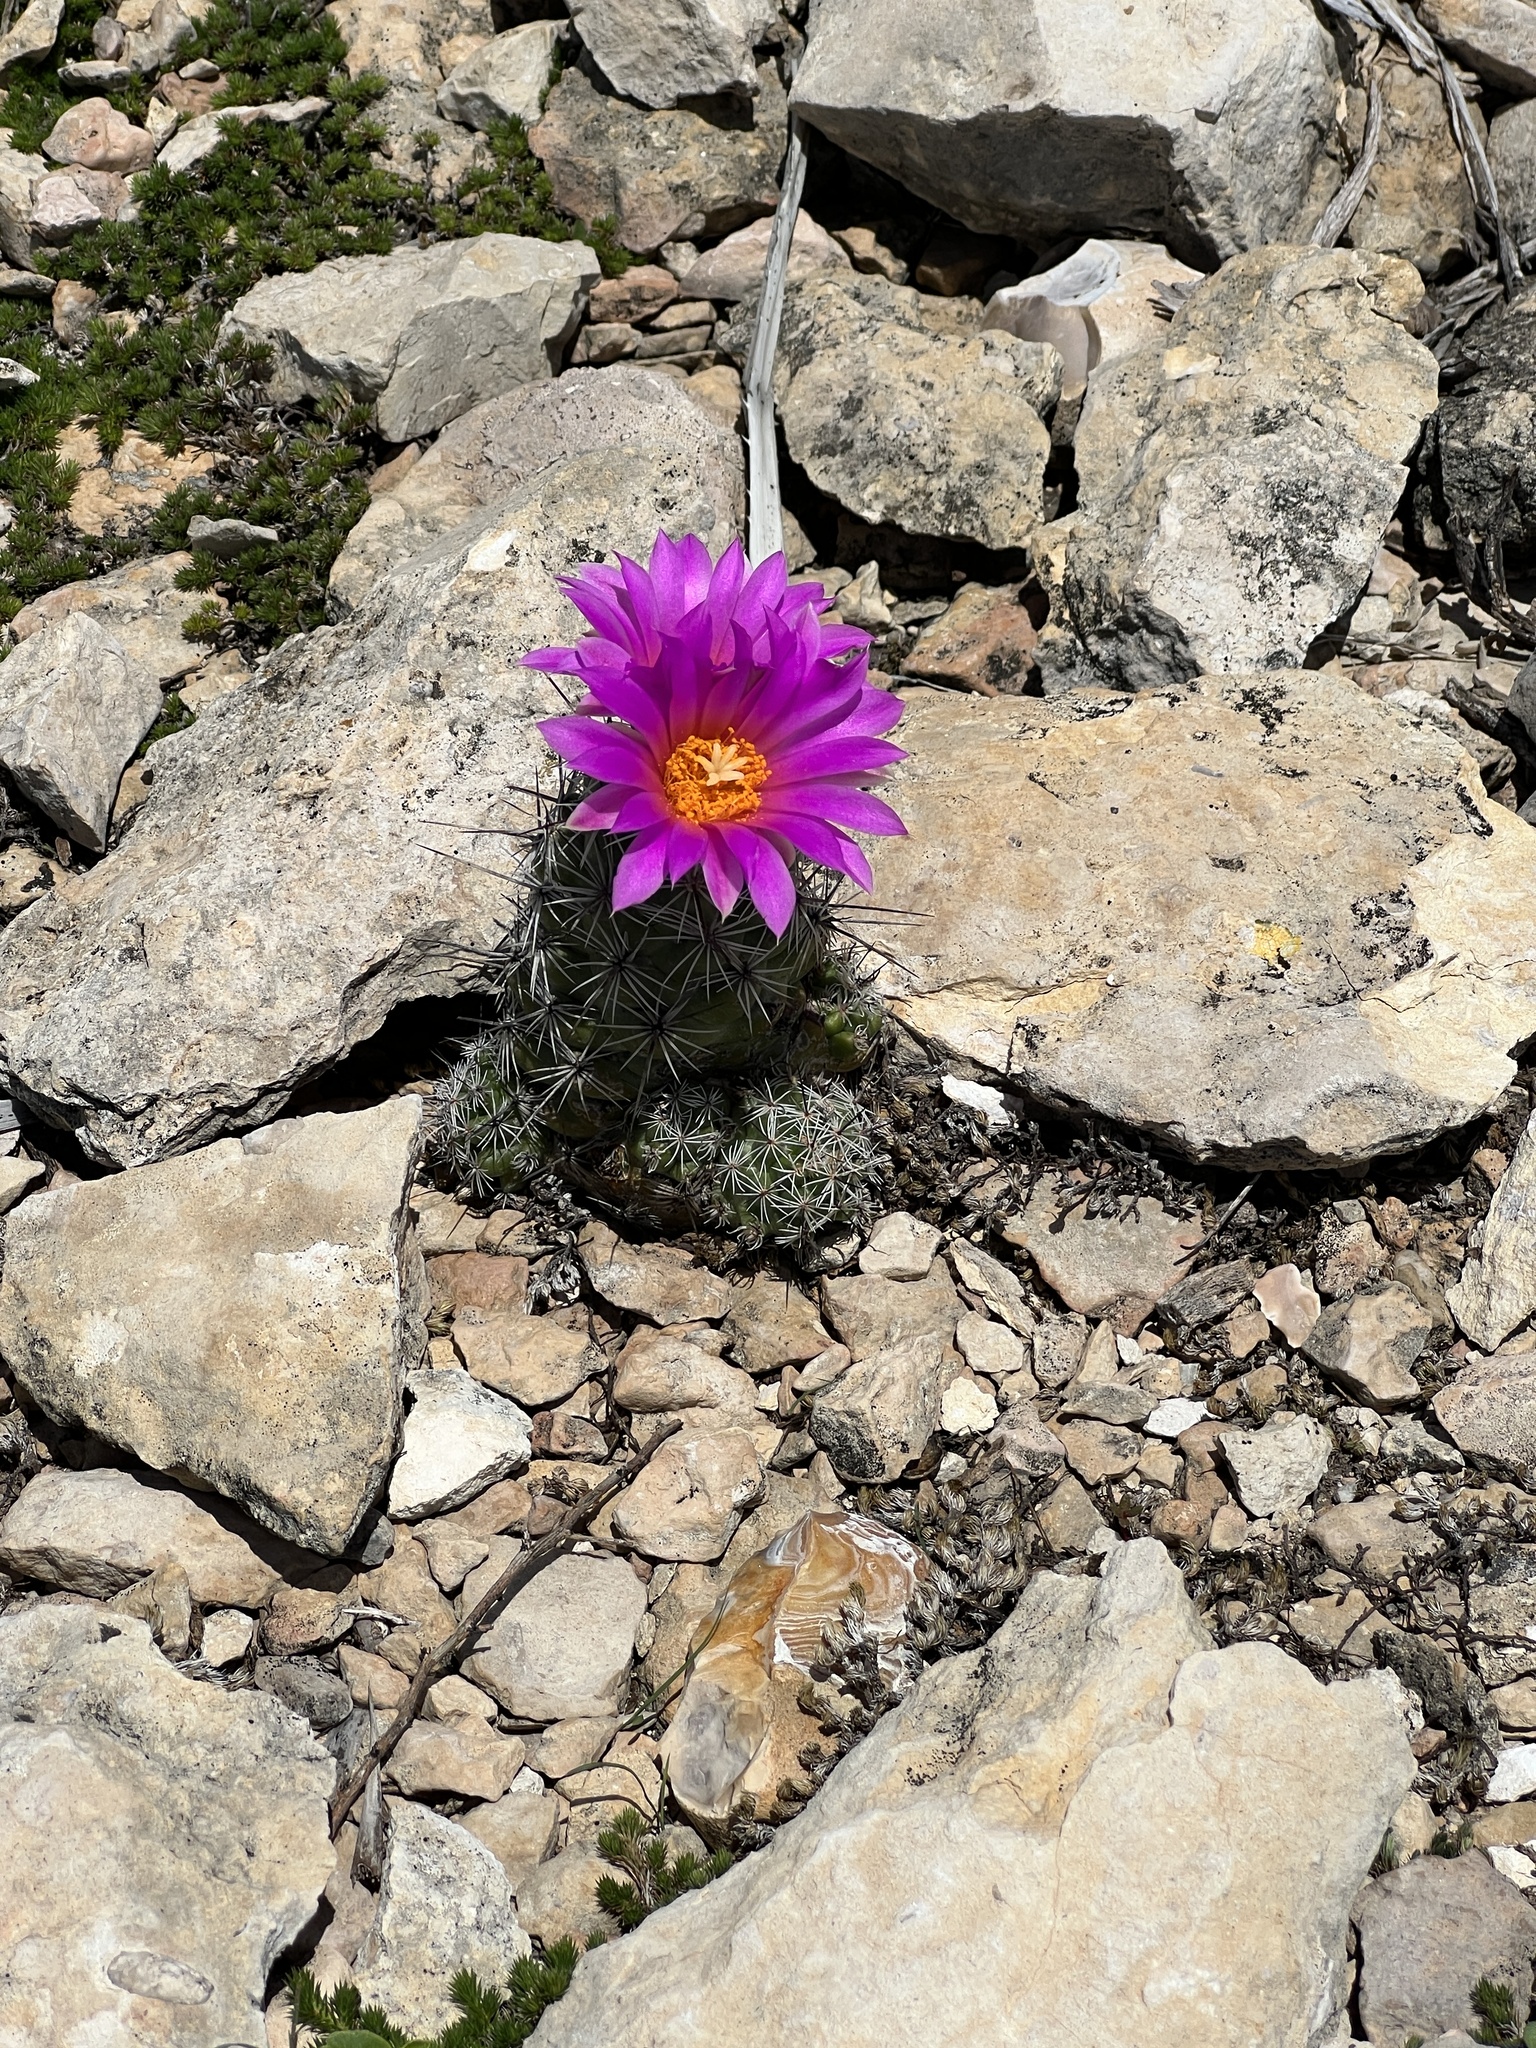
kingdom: Plantae
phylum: Tracheophyta
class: Magnoliopsida
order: Caryophyllales
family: Cactaceae
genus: Cochemiea
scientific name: Cochemiea conoidea
